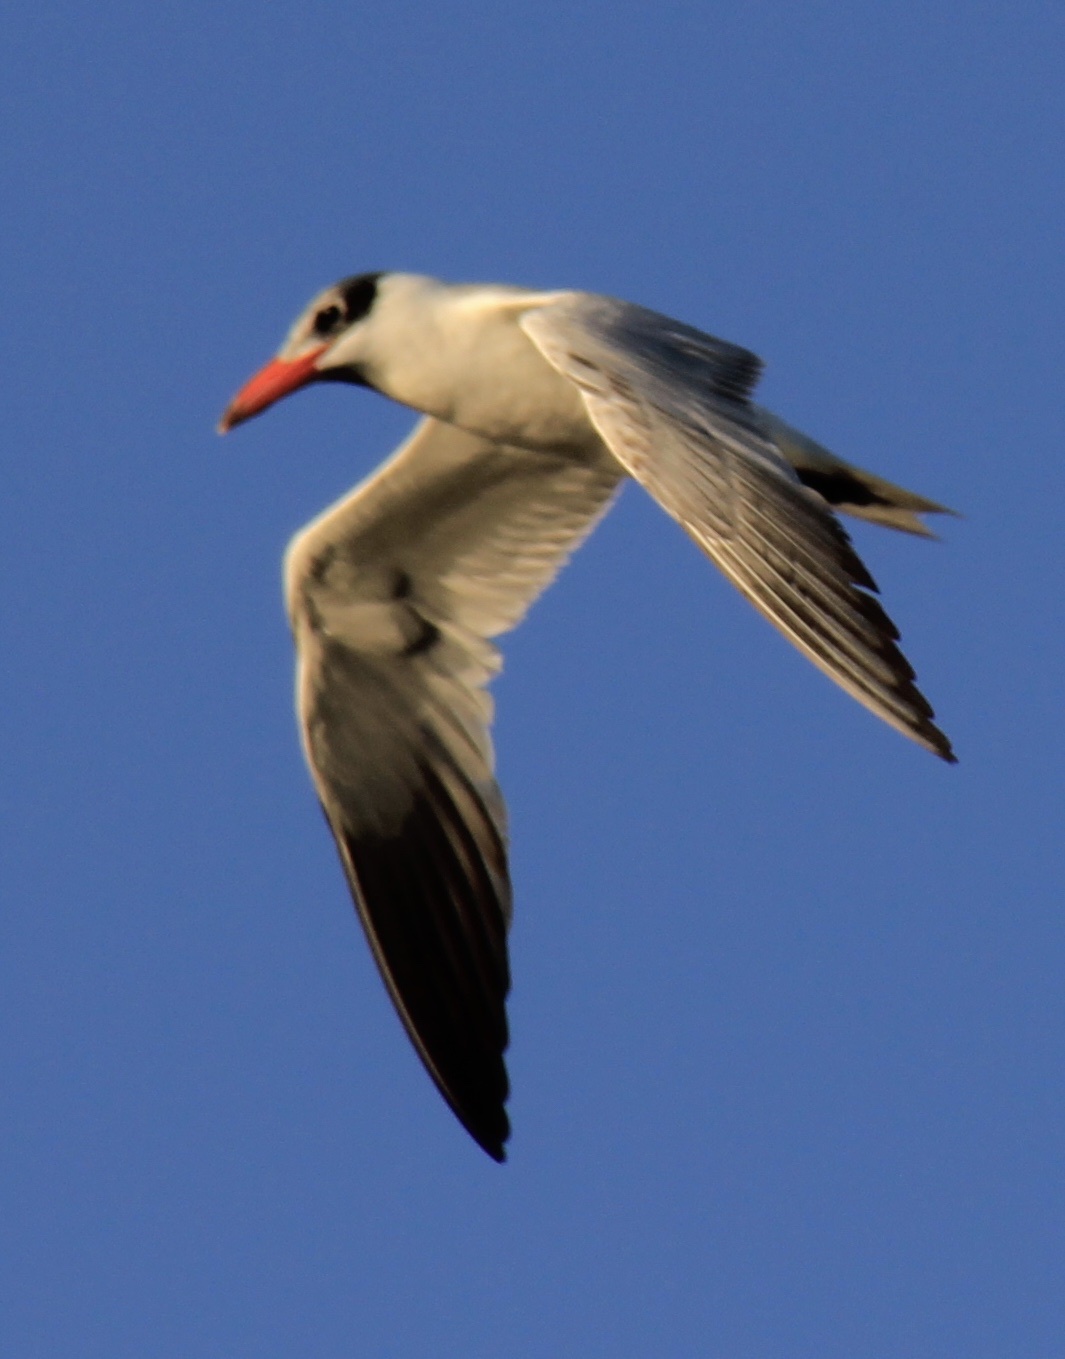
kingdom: Animalia
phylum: Chordata
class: Aves
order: Charadriiformes
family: Laridae
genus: Hydroprogne
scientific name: Hydroprogne caspia
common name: Caspian tern
